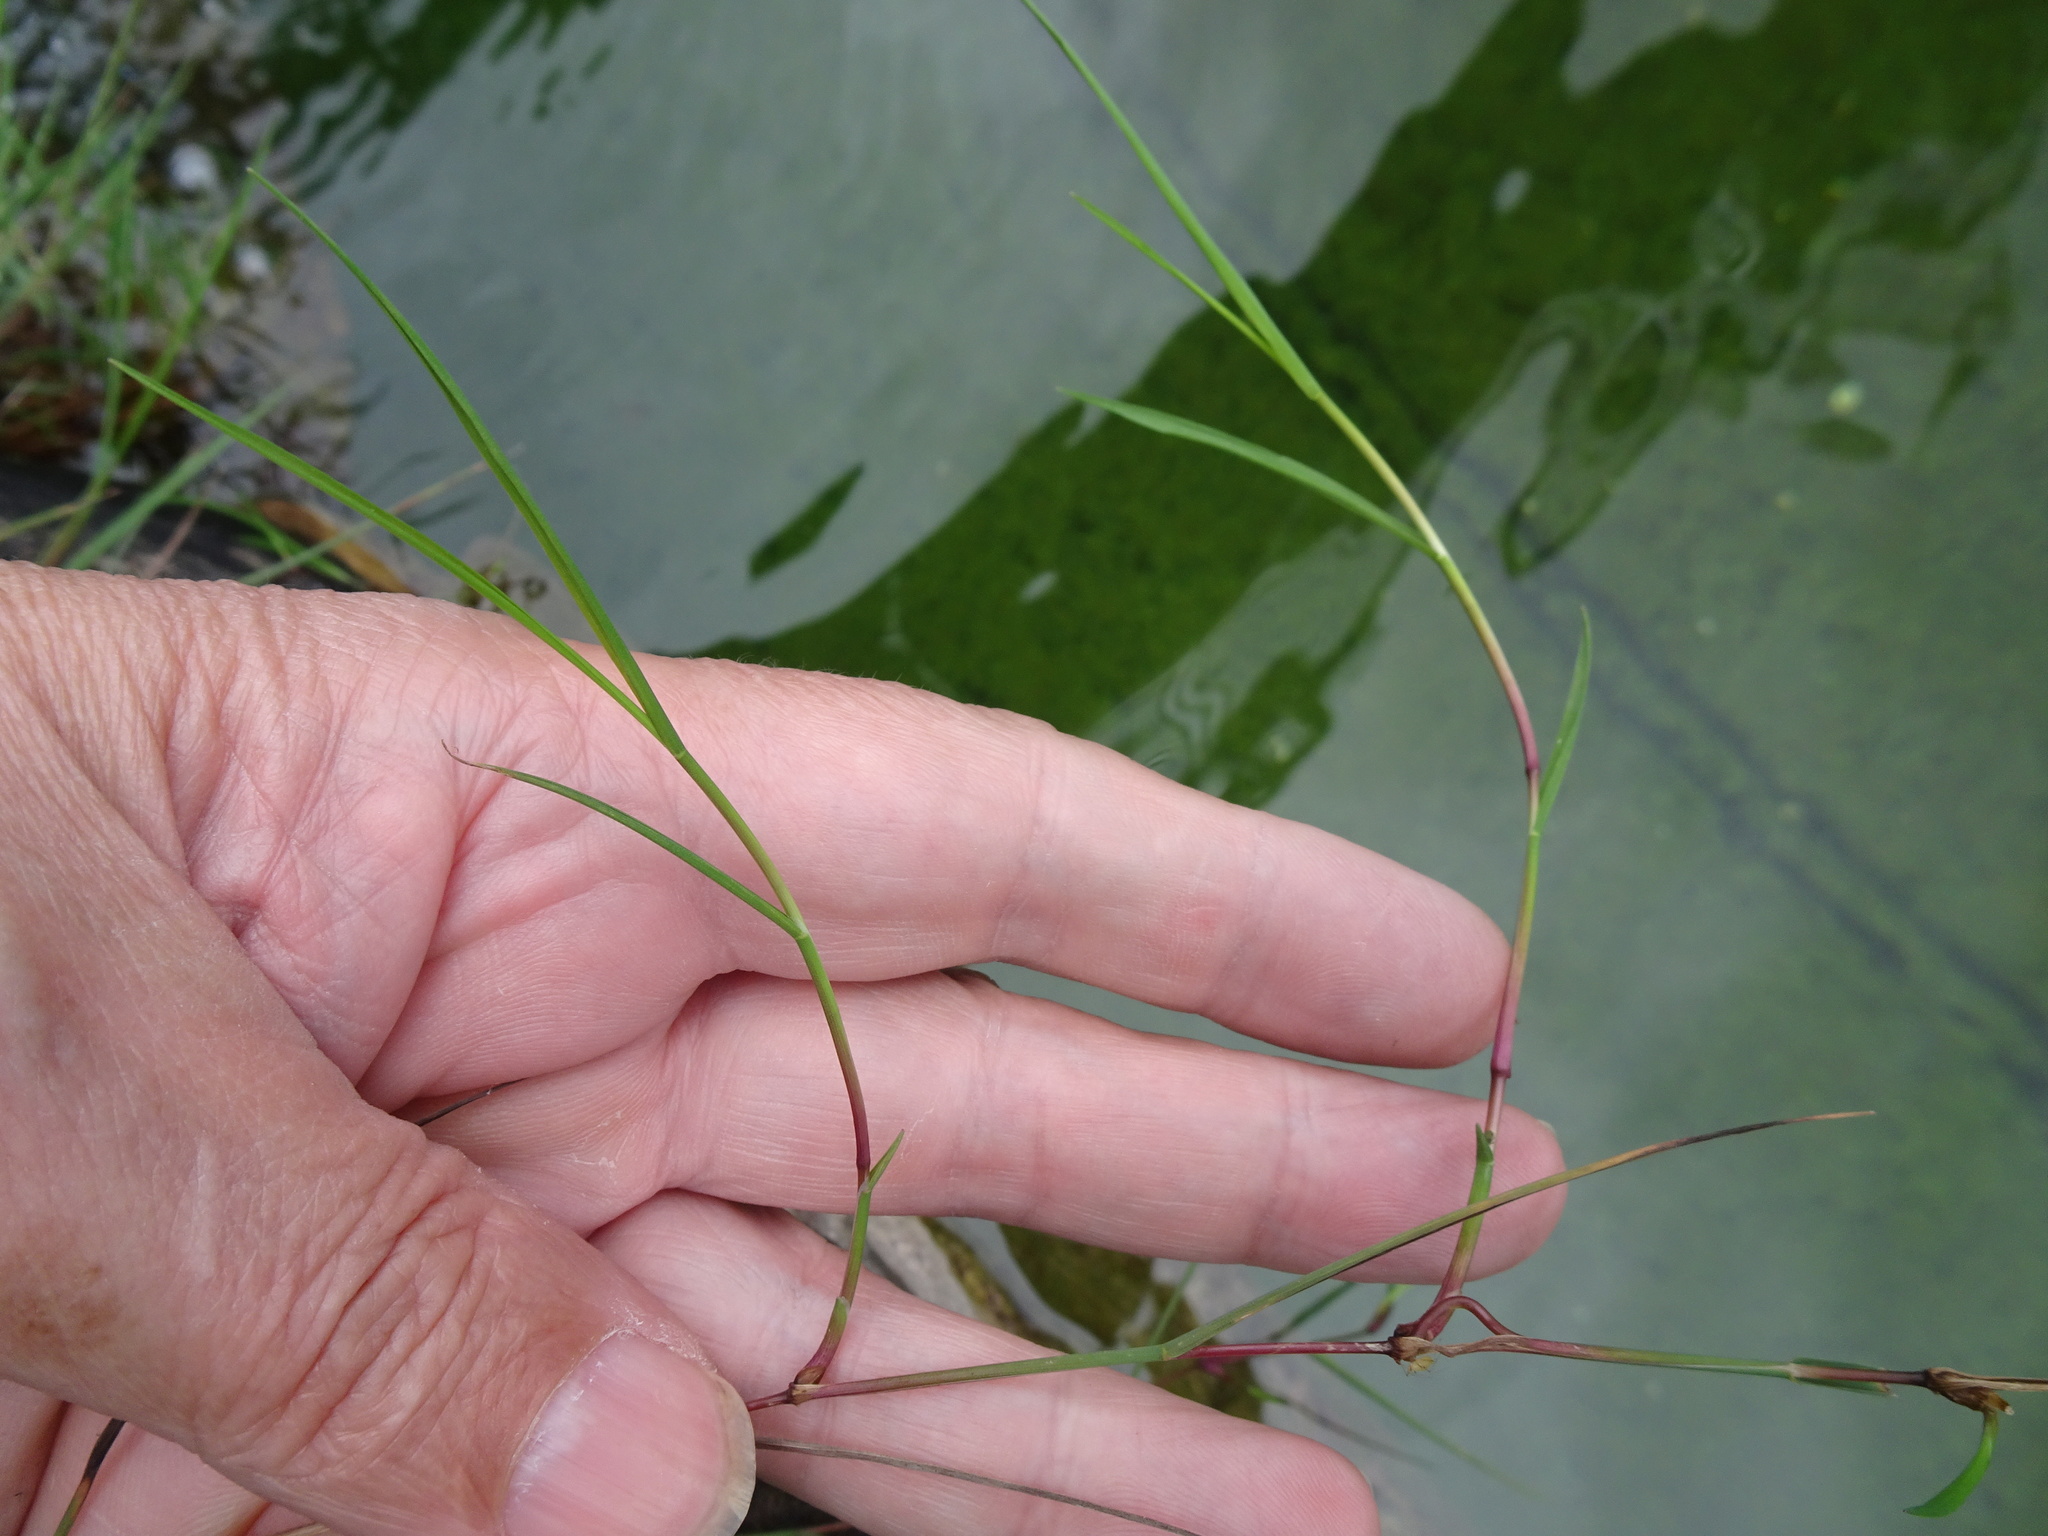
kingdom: Plantae
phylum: Tracheophyta
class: Liliopsida
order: Poales
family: Poaceae
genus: Agrostis
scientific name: Agrostis stolonifera
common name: Creeping bentgrass
